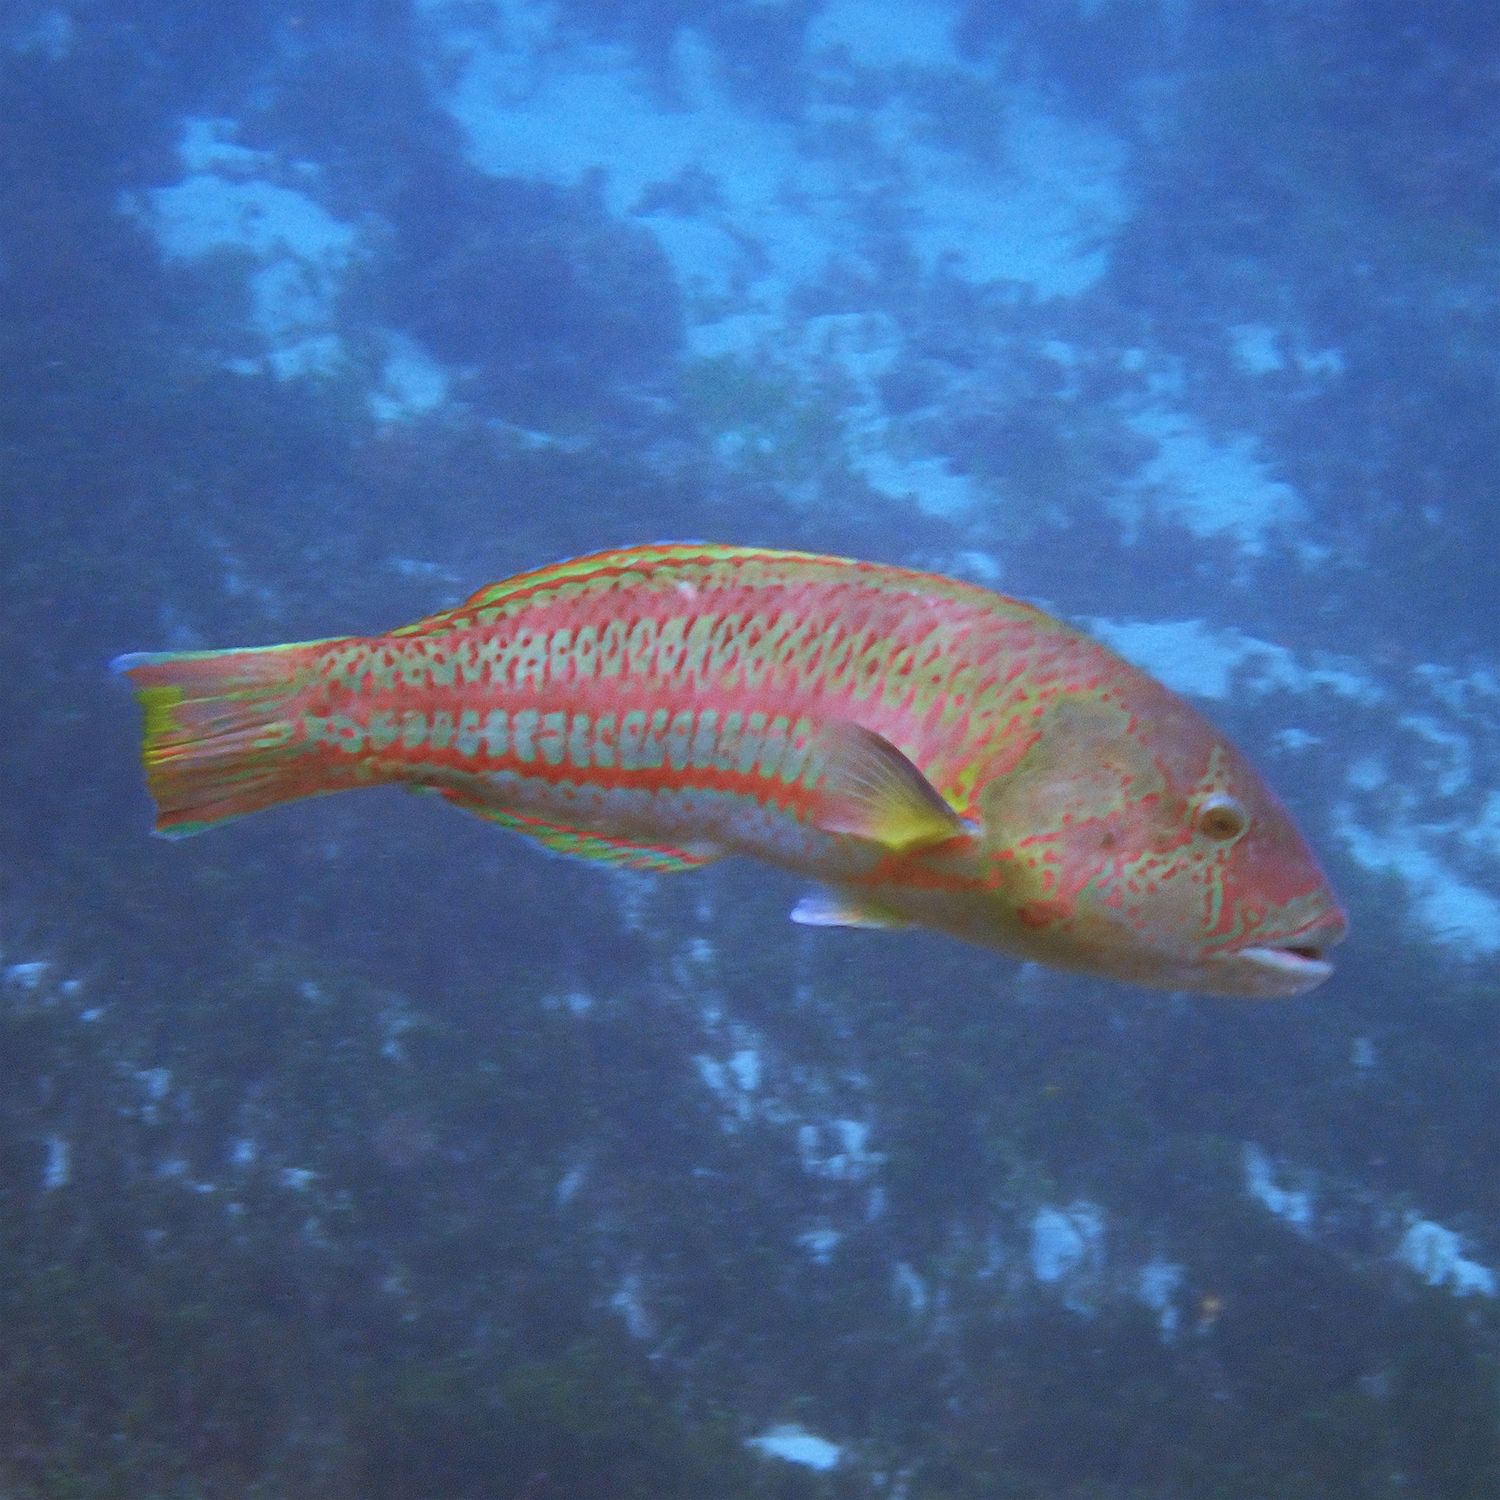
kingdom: Animalia
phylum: Chordata
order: Perciformes
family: Labridae
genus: Thalassoma
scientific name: Thalassoma purpureum
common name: Parrotfish
